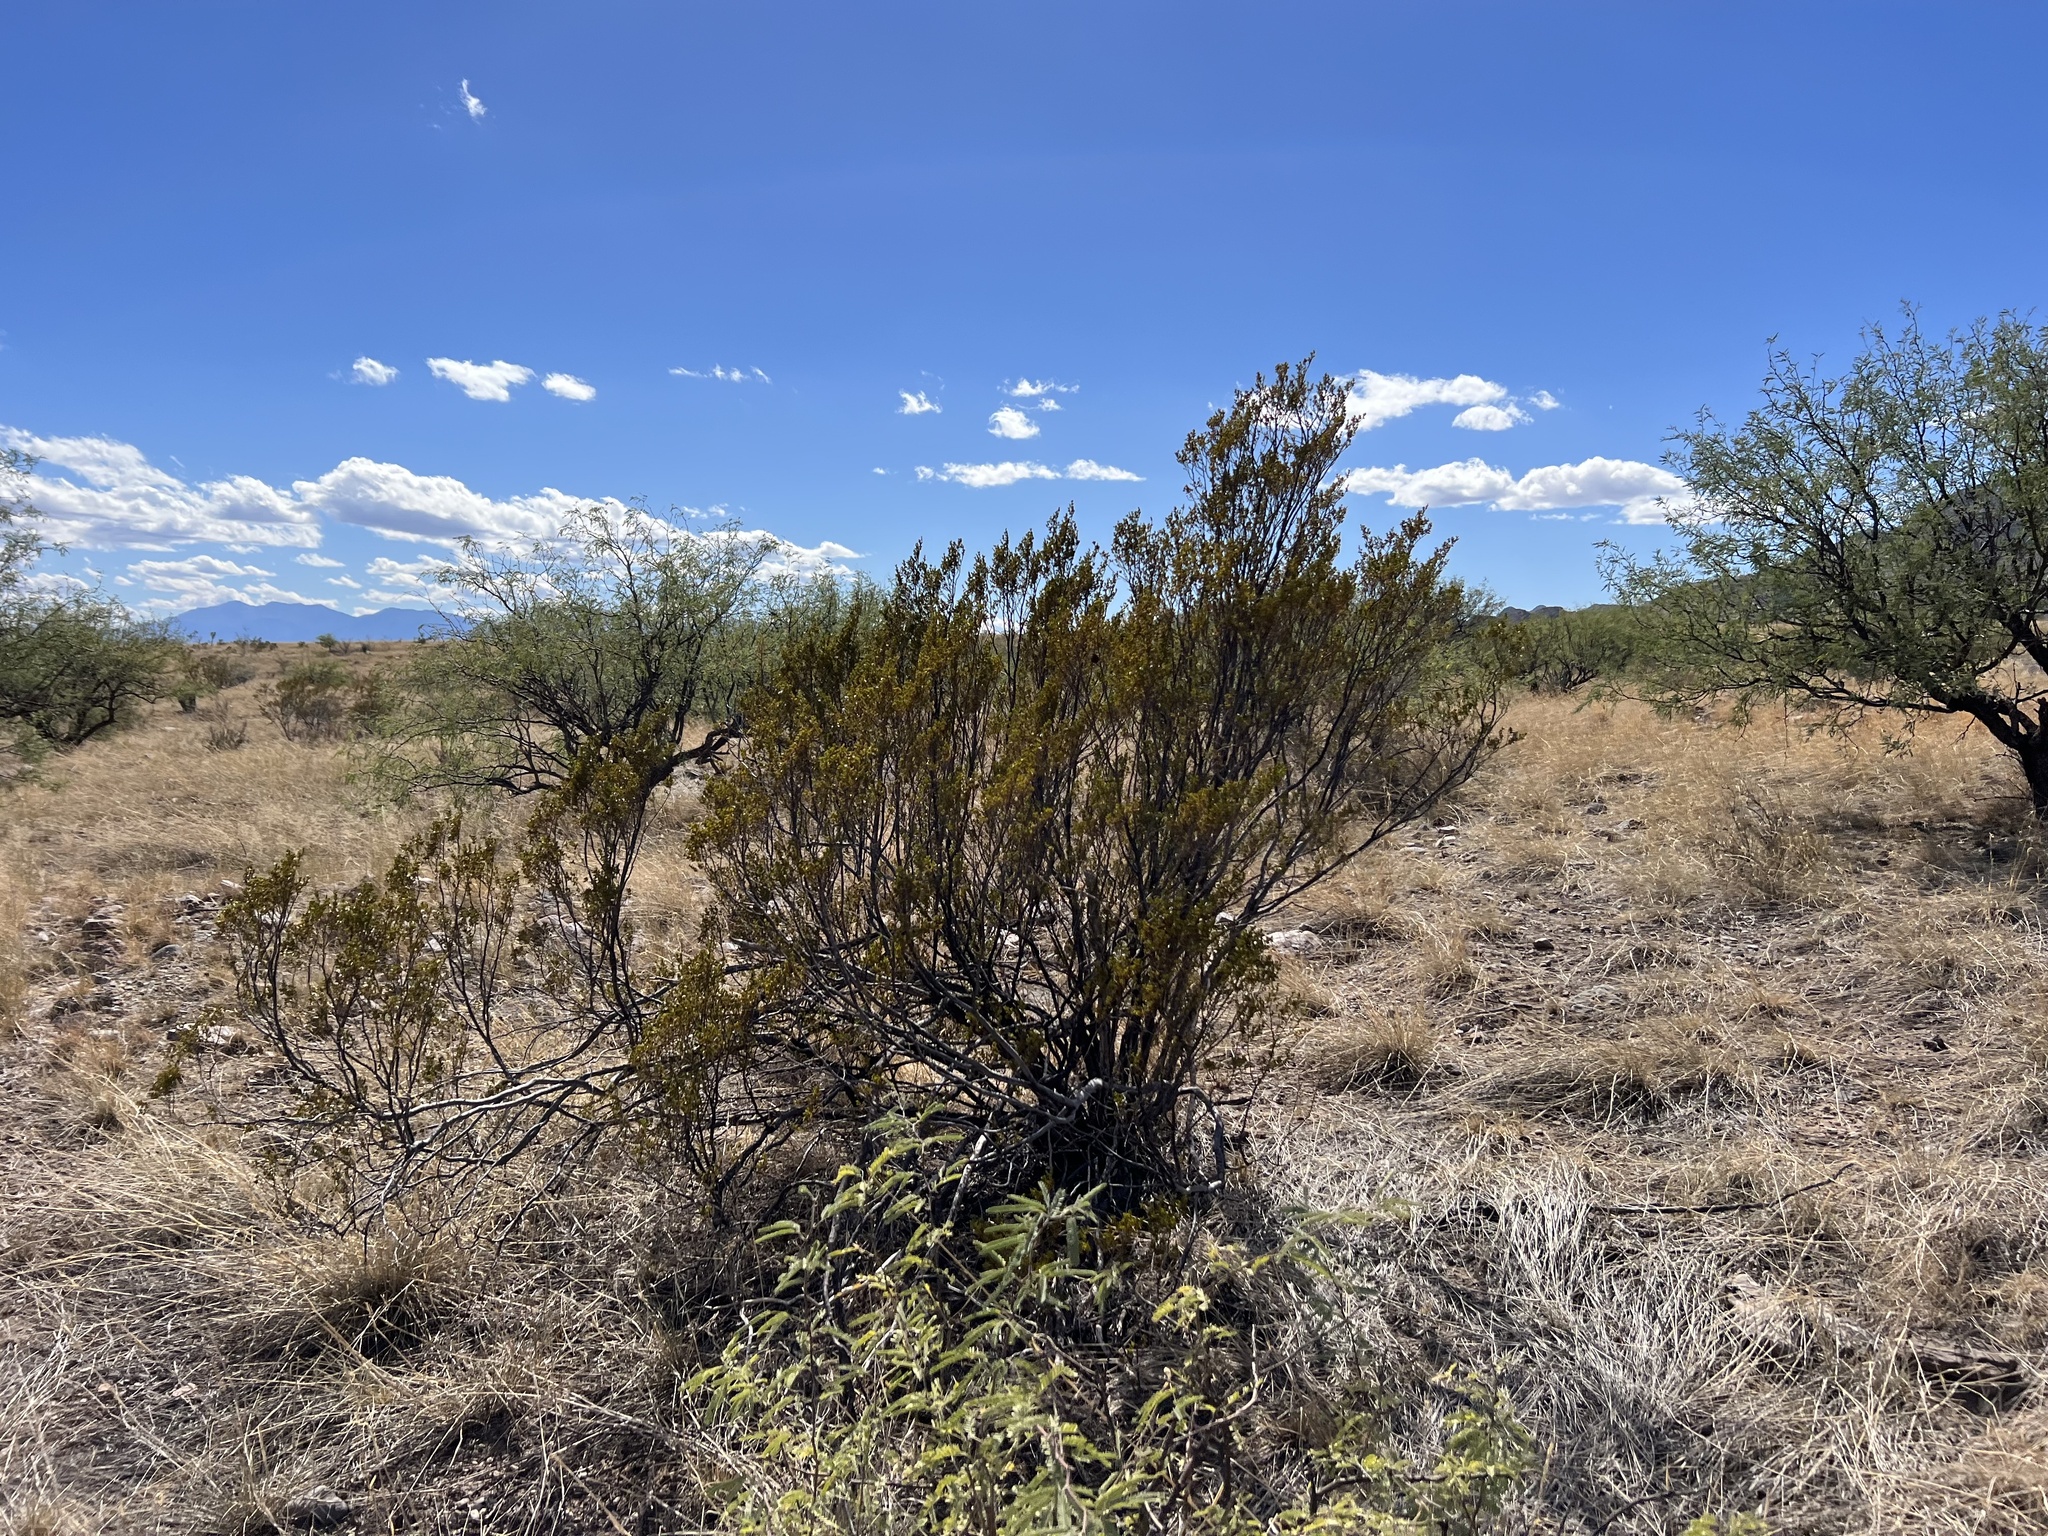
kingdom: Plantae
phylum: Tracheophyta
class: Magnoliopsida
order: Zygophyllales
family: Zygophyllaceae
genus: Larrea
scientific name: Larrea tridentata
